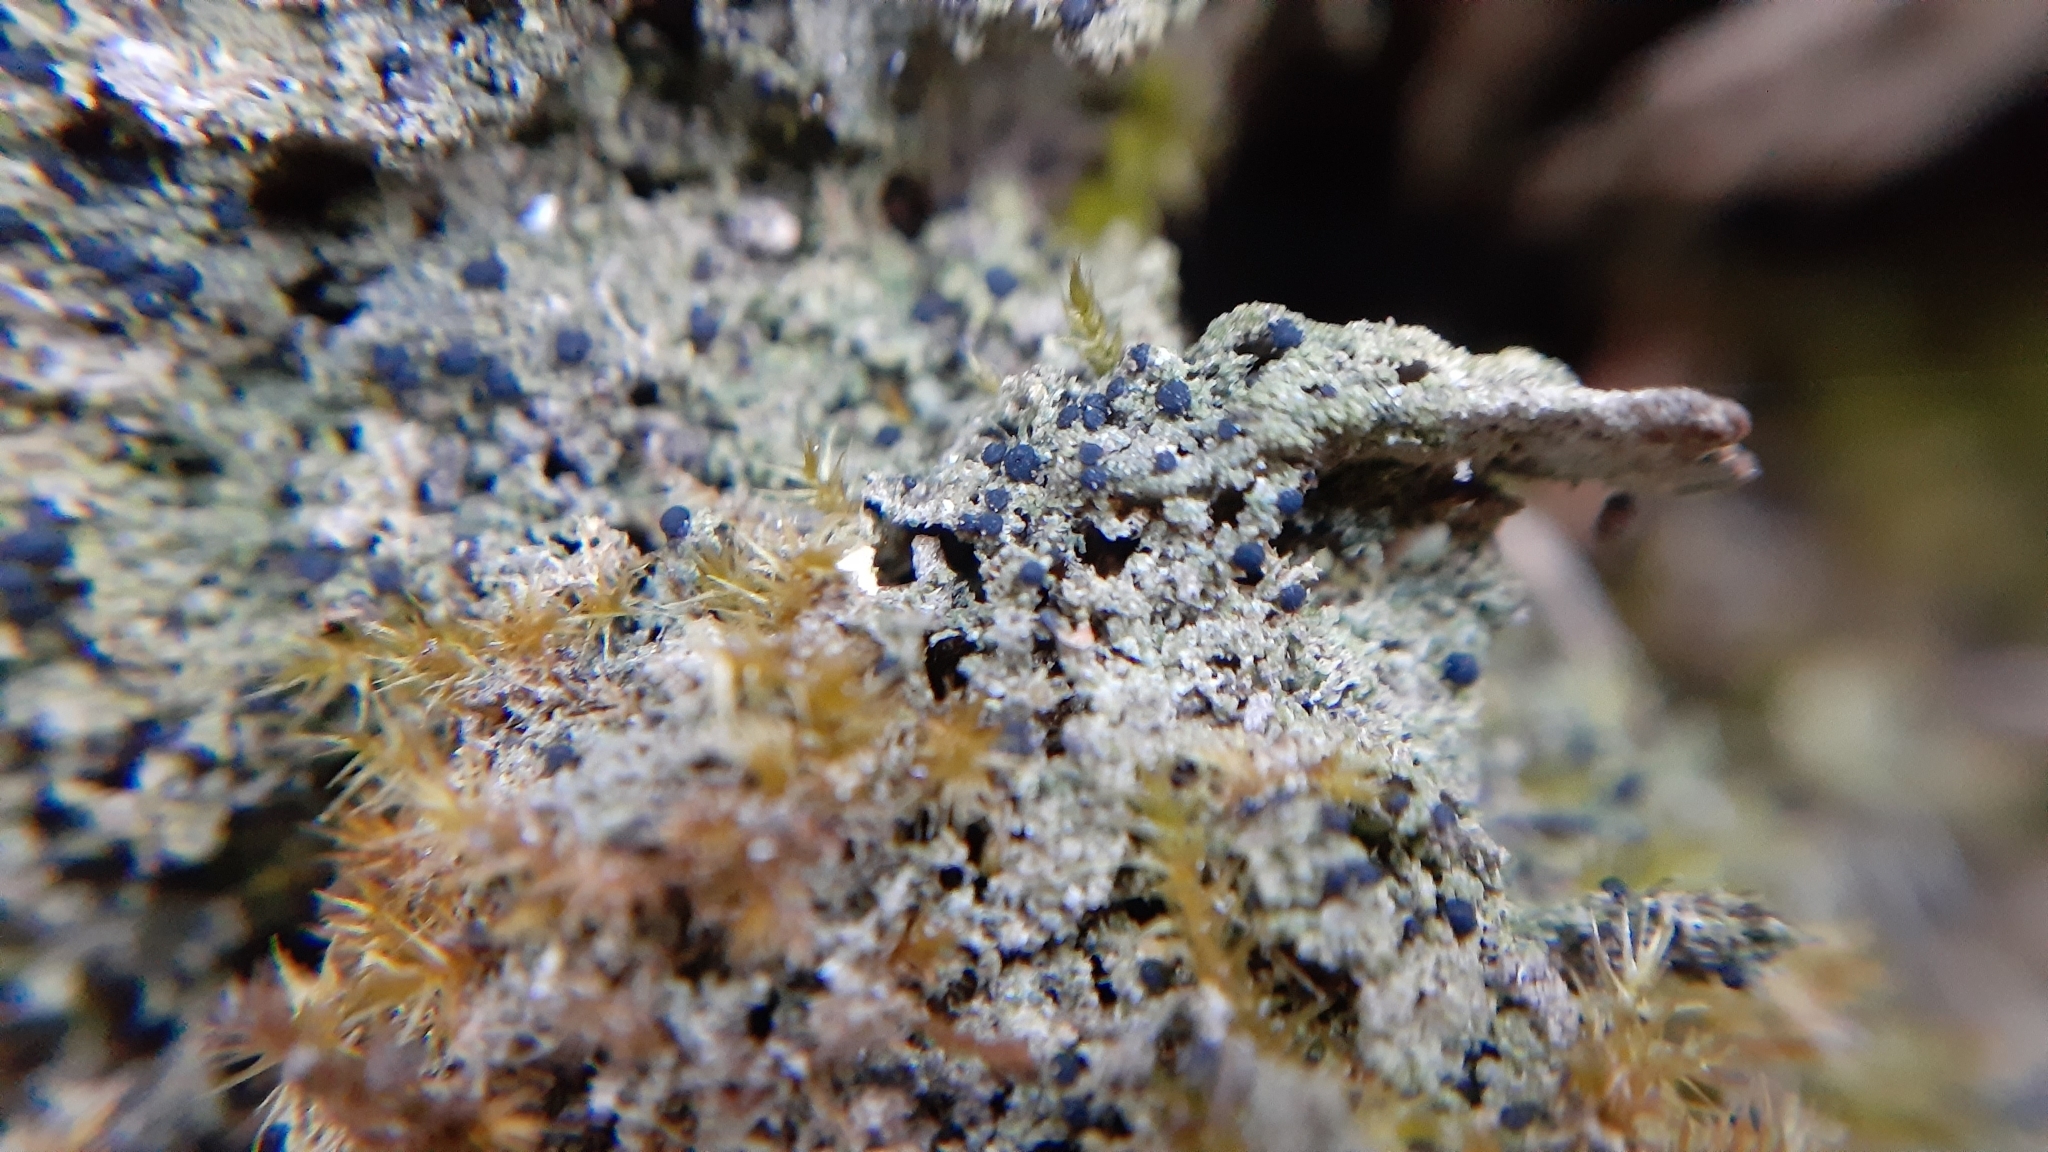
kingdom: Fungi
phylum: Ascomycota
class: Lecanoromycetes
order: Lecanorales
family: Ramalinaceae
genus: Bilimbia
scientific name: Bilimbia sabuletorum
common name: Six-celled moss dot lichen
